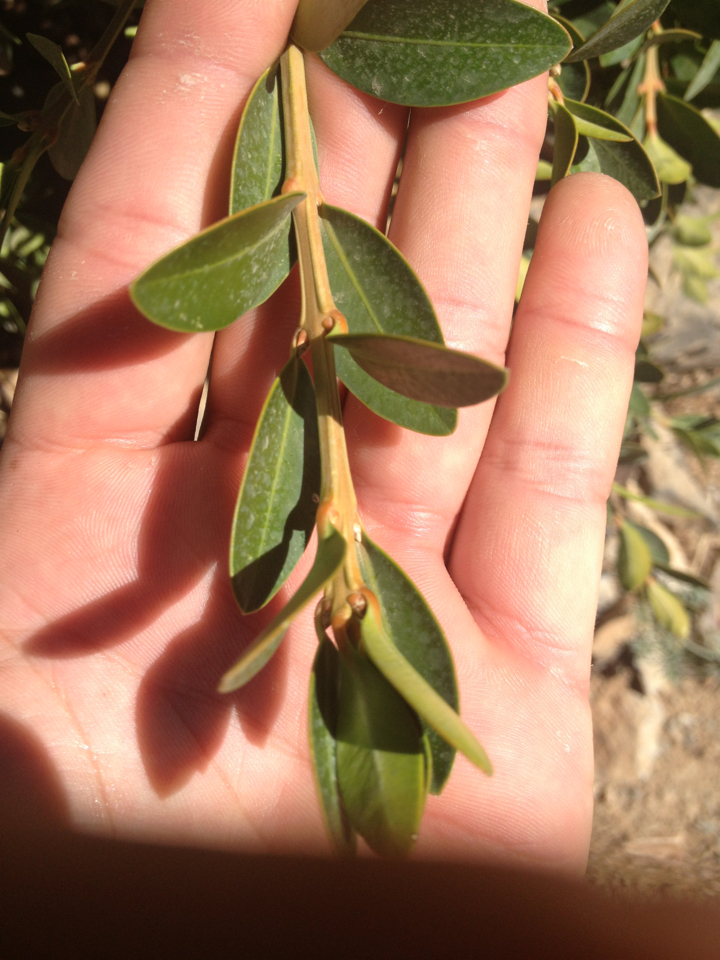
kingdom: Plantae
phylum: Tracheophyta
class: Magnoliopsida
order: Buxales
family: Buxaceae
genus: Buxus
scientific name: Buxus balearica
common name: Balearic box
